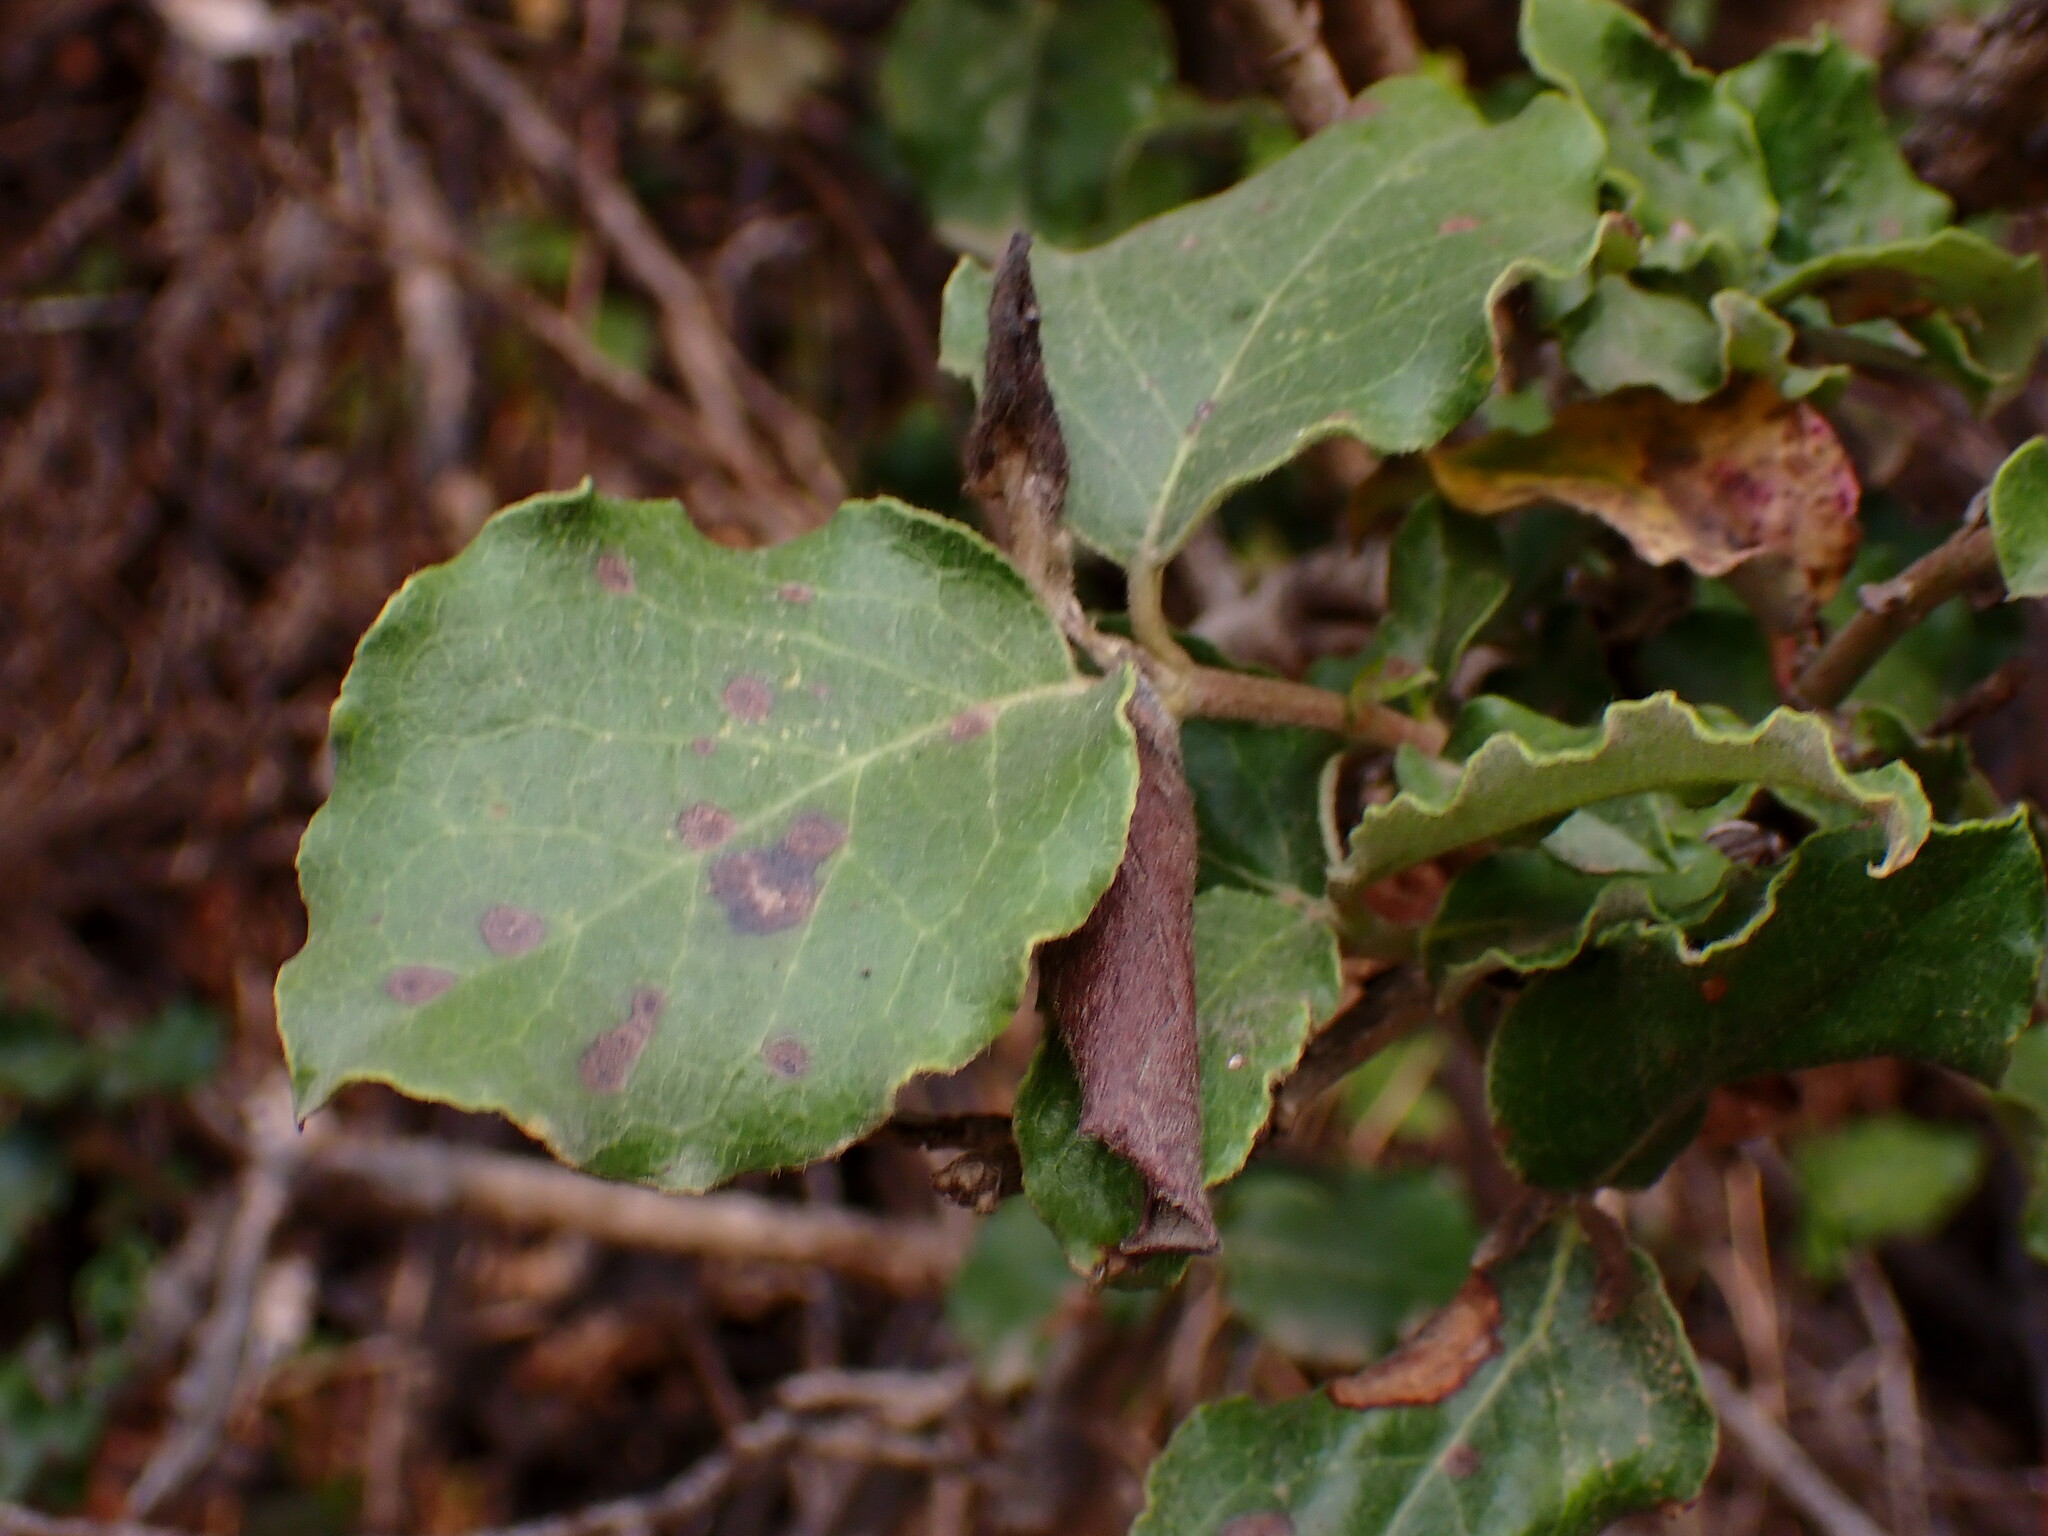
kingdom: Plantae
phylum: Tracheophyta
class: Magnoliopsida
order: Garryales
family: Garryaceae
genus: Garrya
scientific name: Garrya elliptica
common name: Silk-tassel
